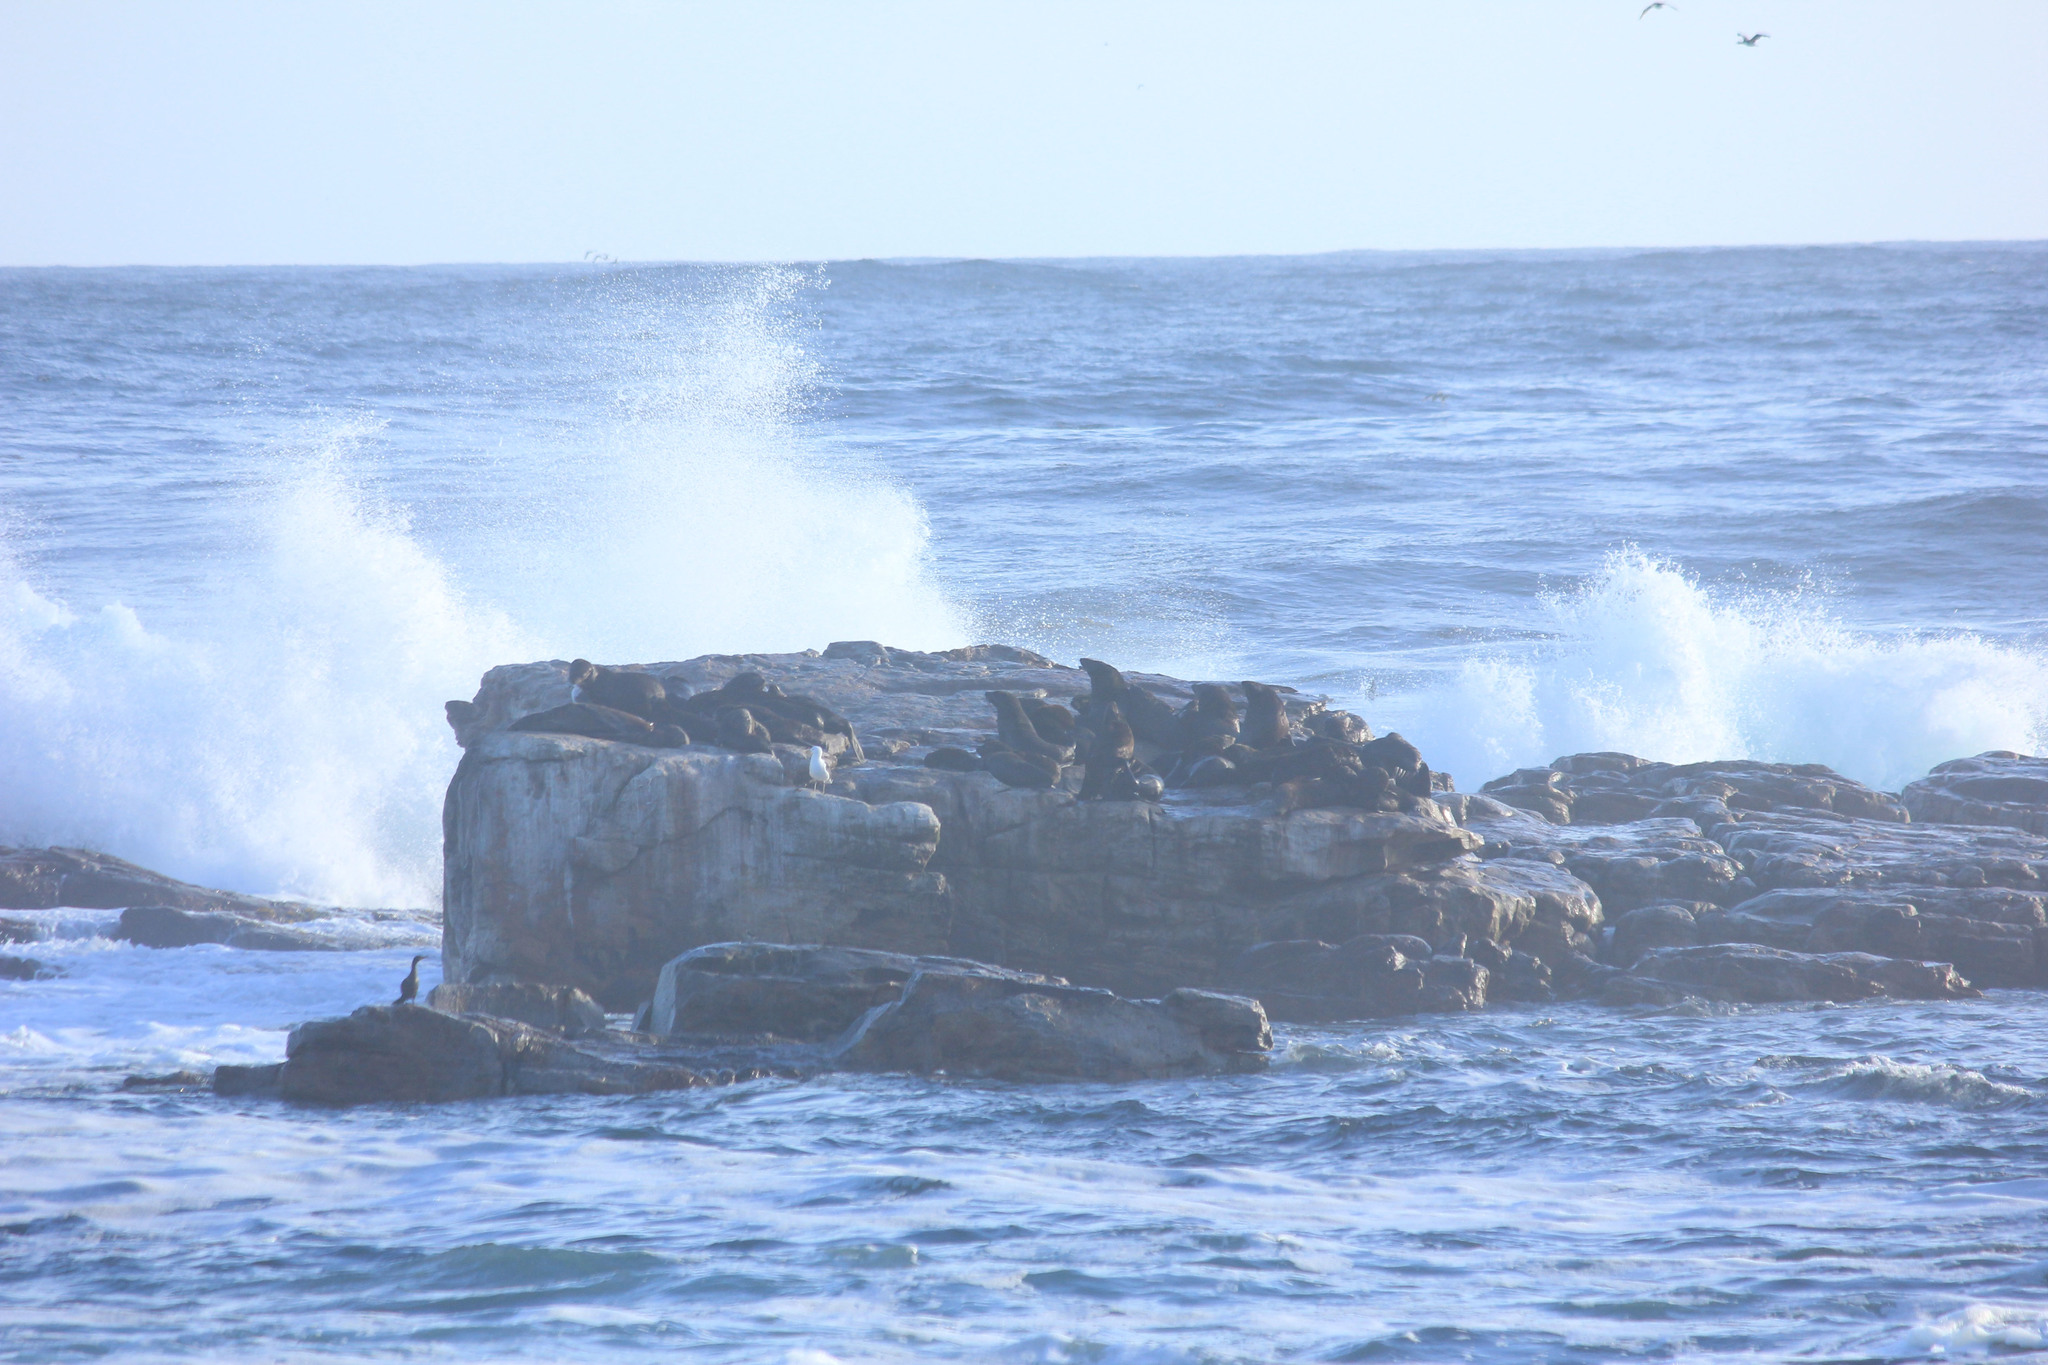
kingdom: Animalia
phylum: Chordata
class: Mammalia
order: Carnivora
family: Otariidae
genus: Arctocephalus
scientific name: Arctocephalus pusillus
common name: Brown fur seal
